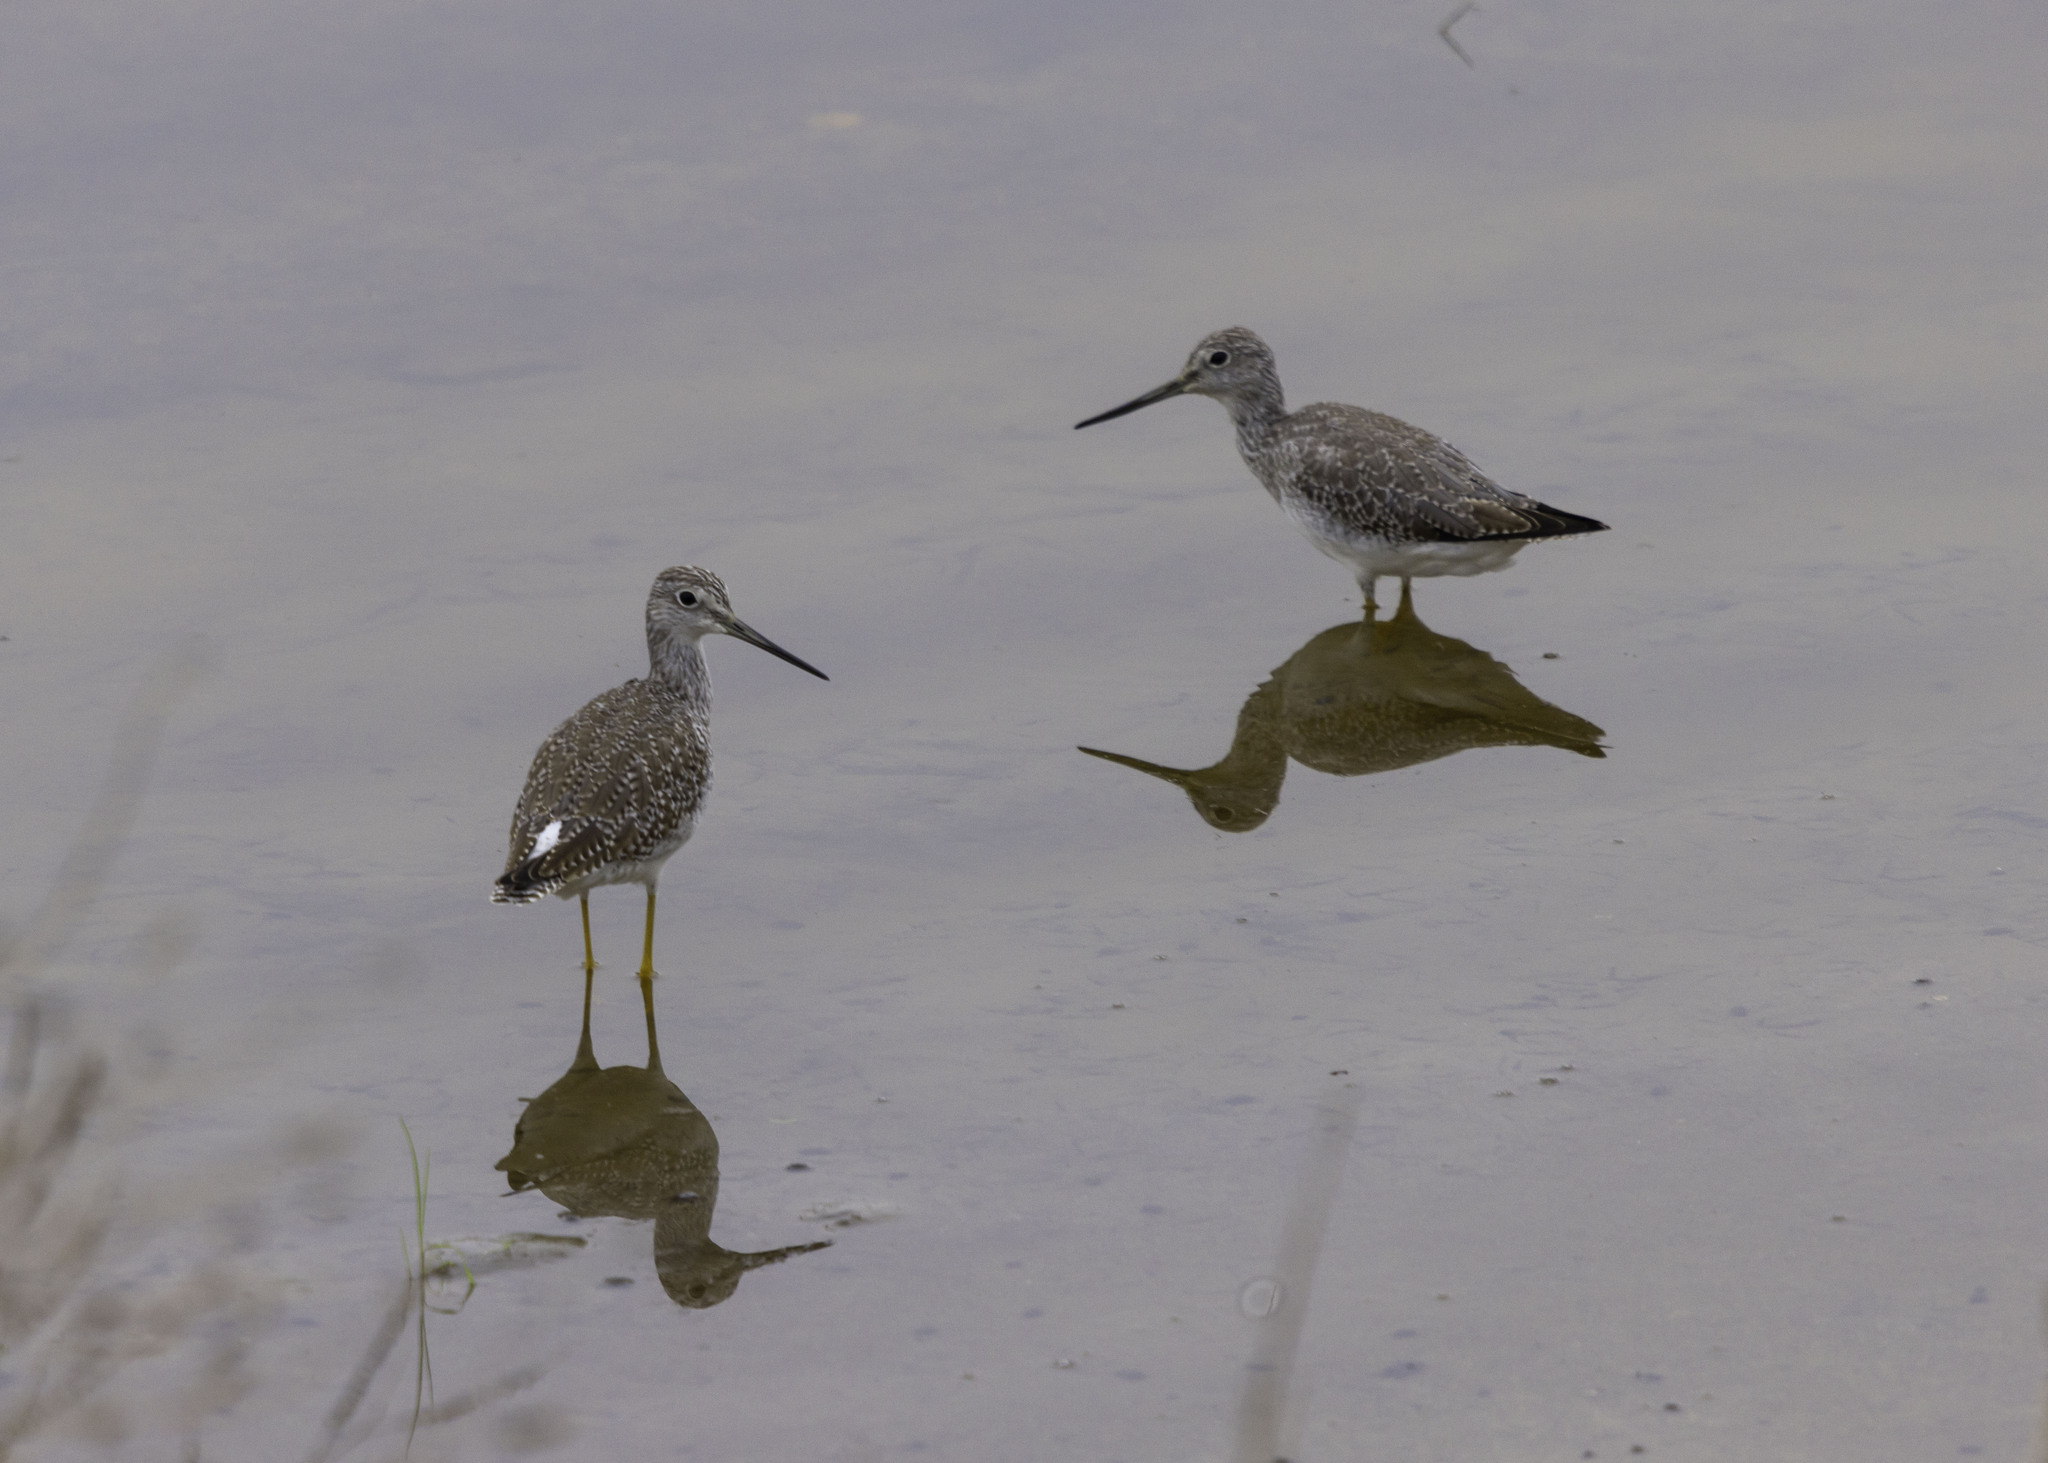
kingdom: Animalia
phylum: Chordata
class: Aves
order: Charadriiformes
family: Scolopacidae
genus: Tringa
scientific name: Tringa melanoleuca
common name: Greater yellowlegs
